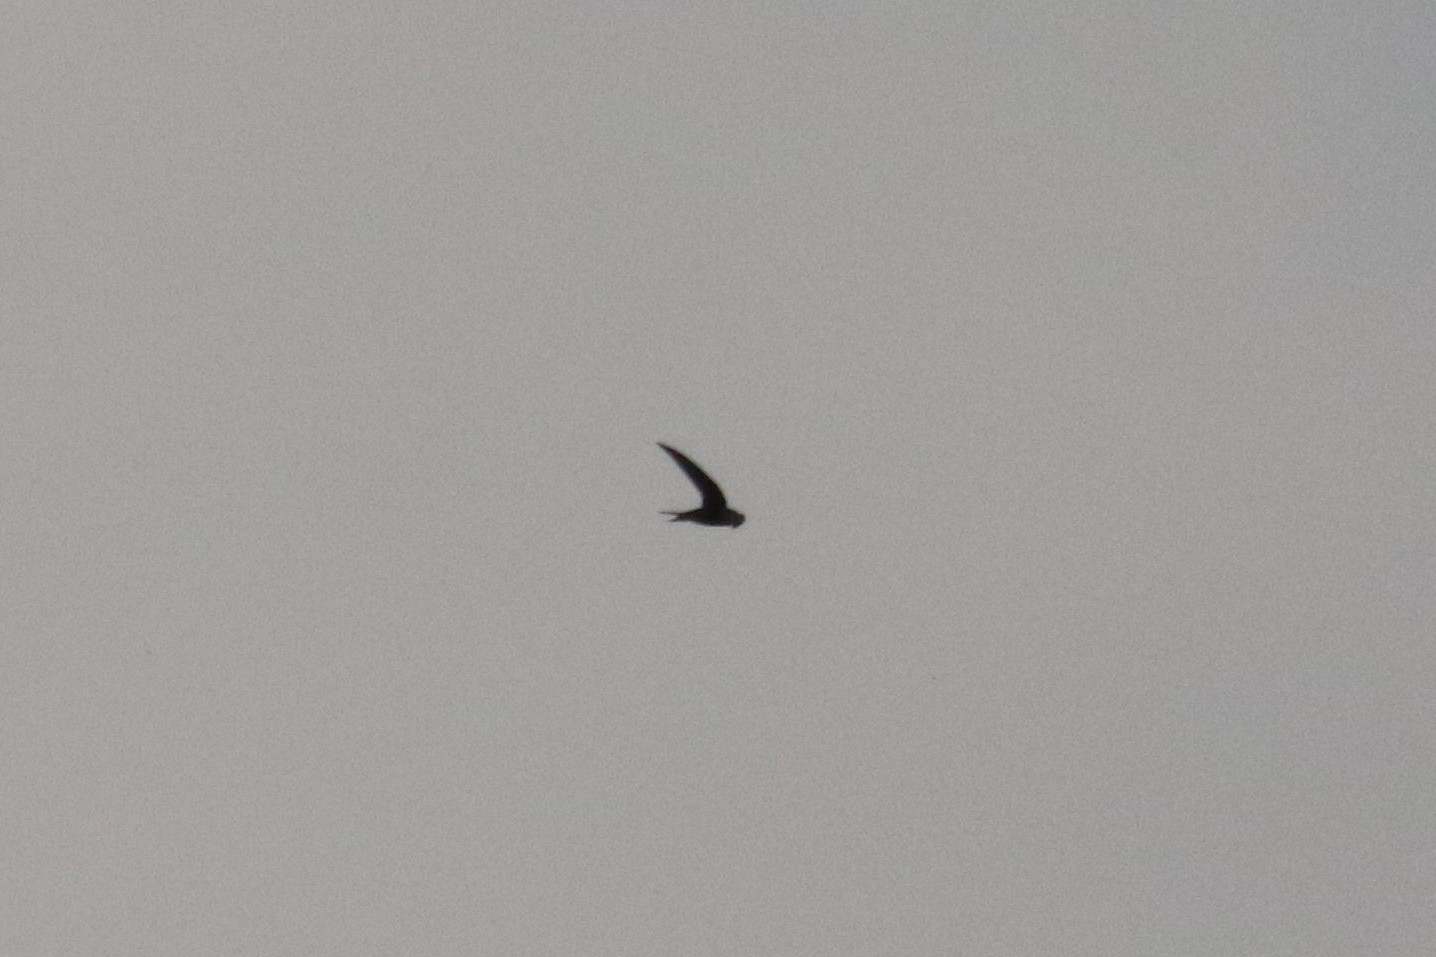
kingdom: Animalia
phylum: Chordata
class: Aves
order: Apodiformes
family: Apodidae
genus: Apus
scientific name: Apus apus
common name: Common swift
